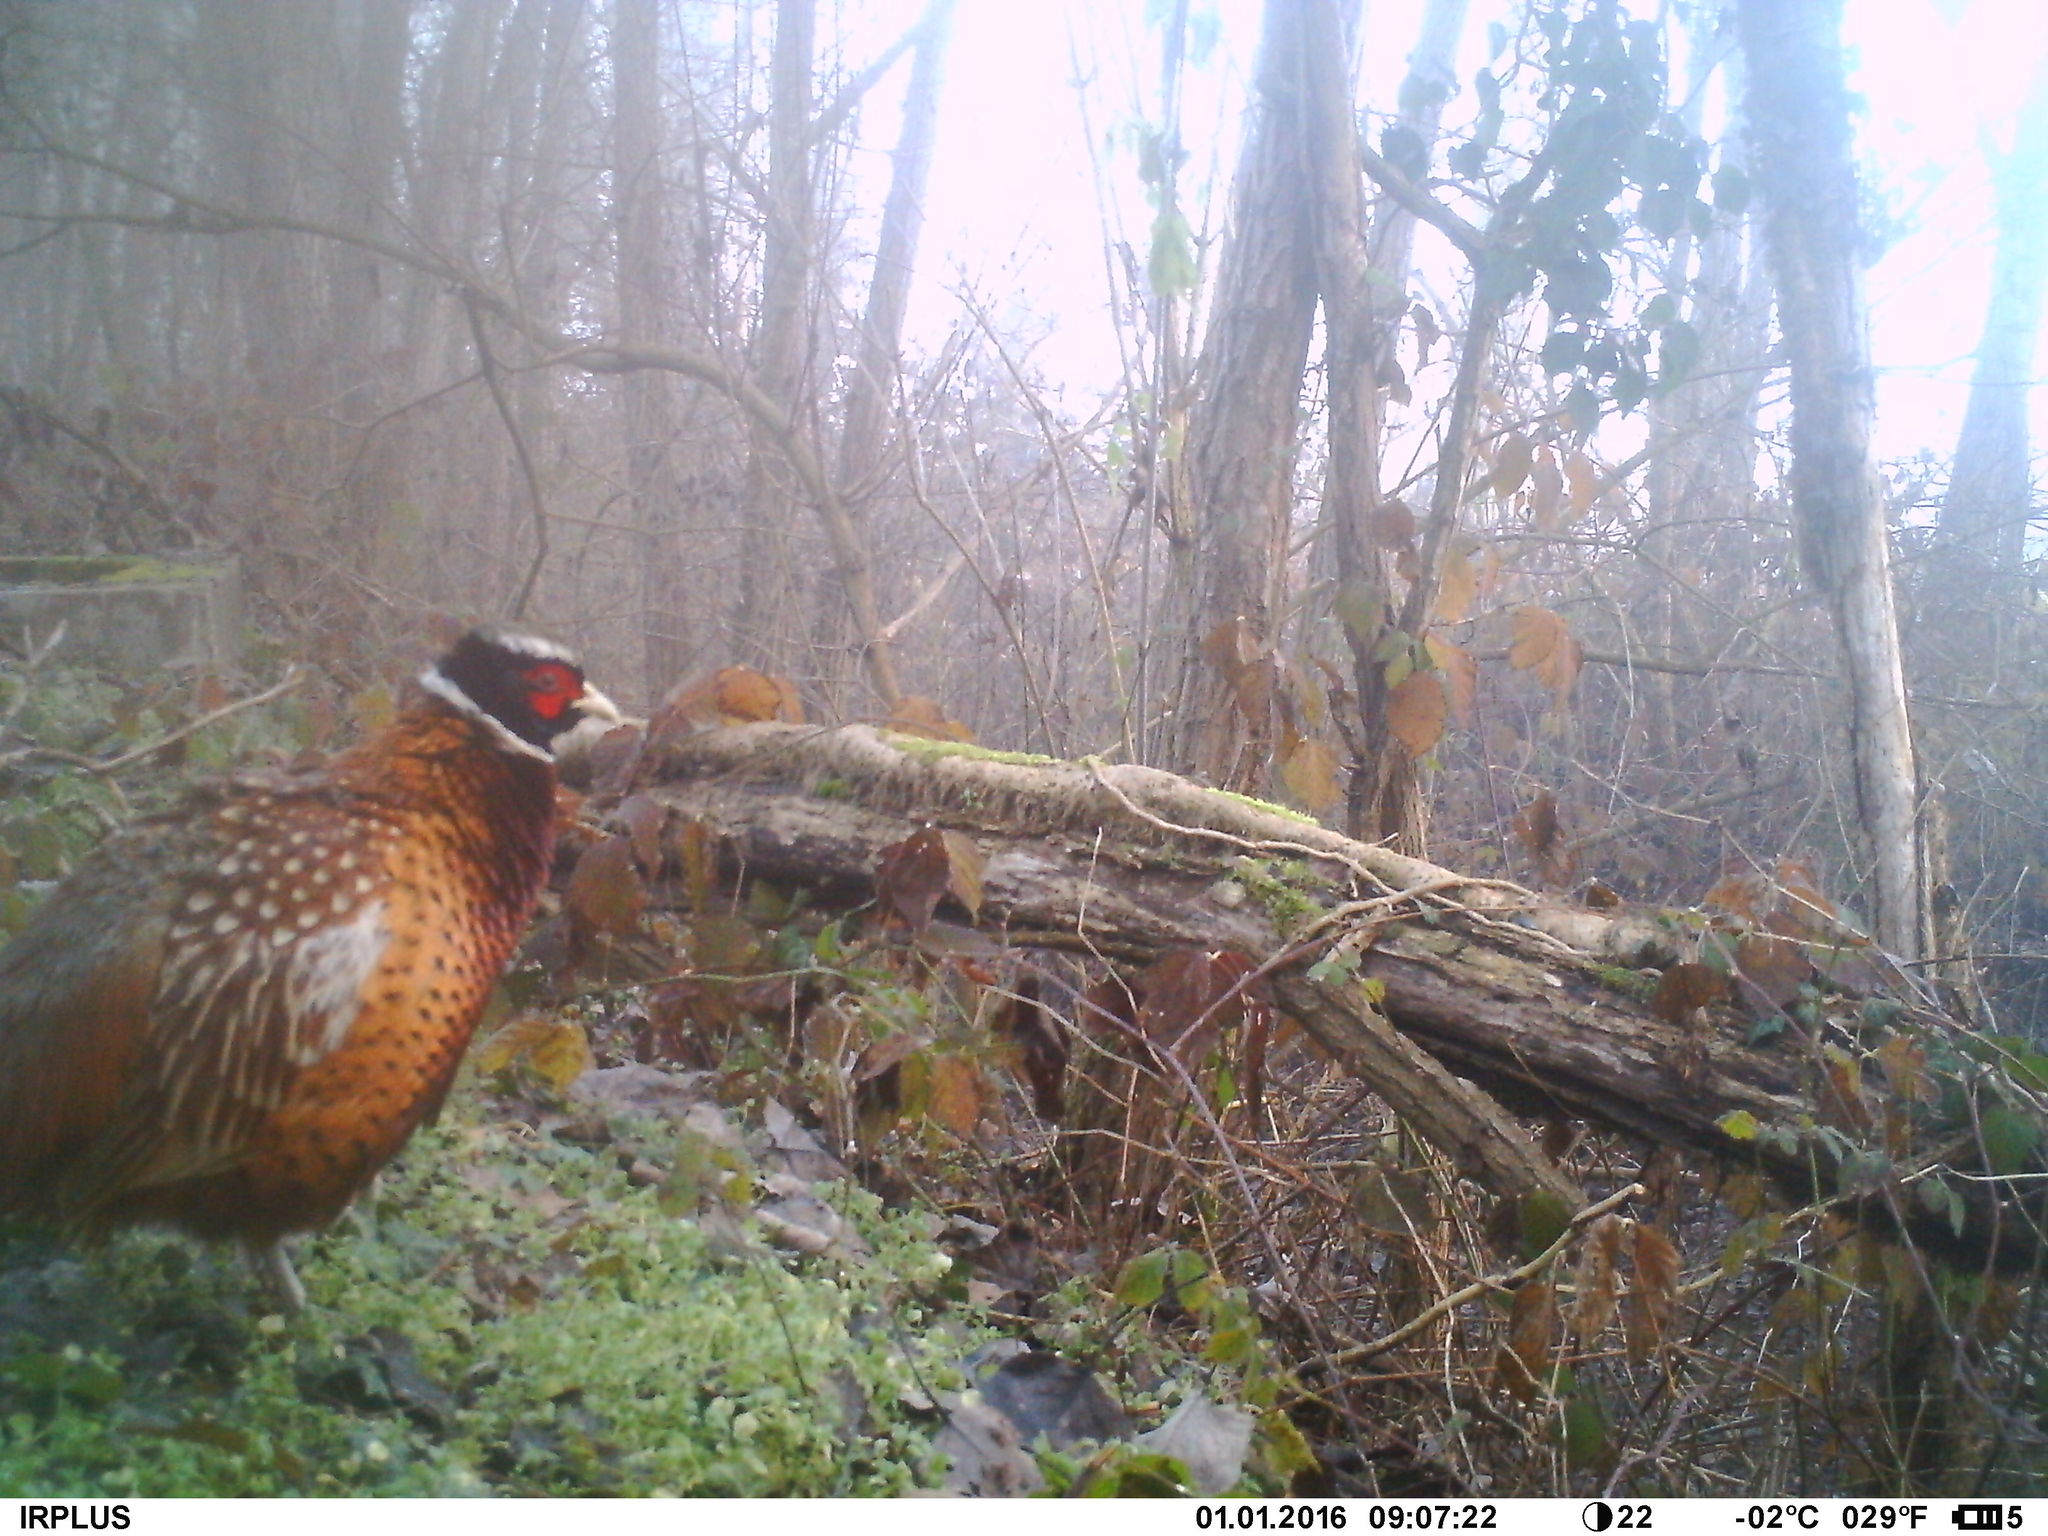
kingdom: Animalia
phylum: Chordata
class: Aves
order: Galliformes
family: Phasianidae
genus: Phasianus
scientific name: Phasianus colchicus
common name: Common pheasant
